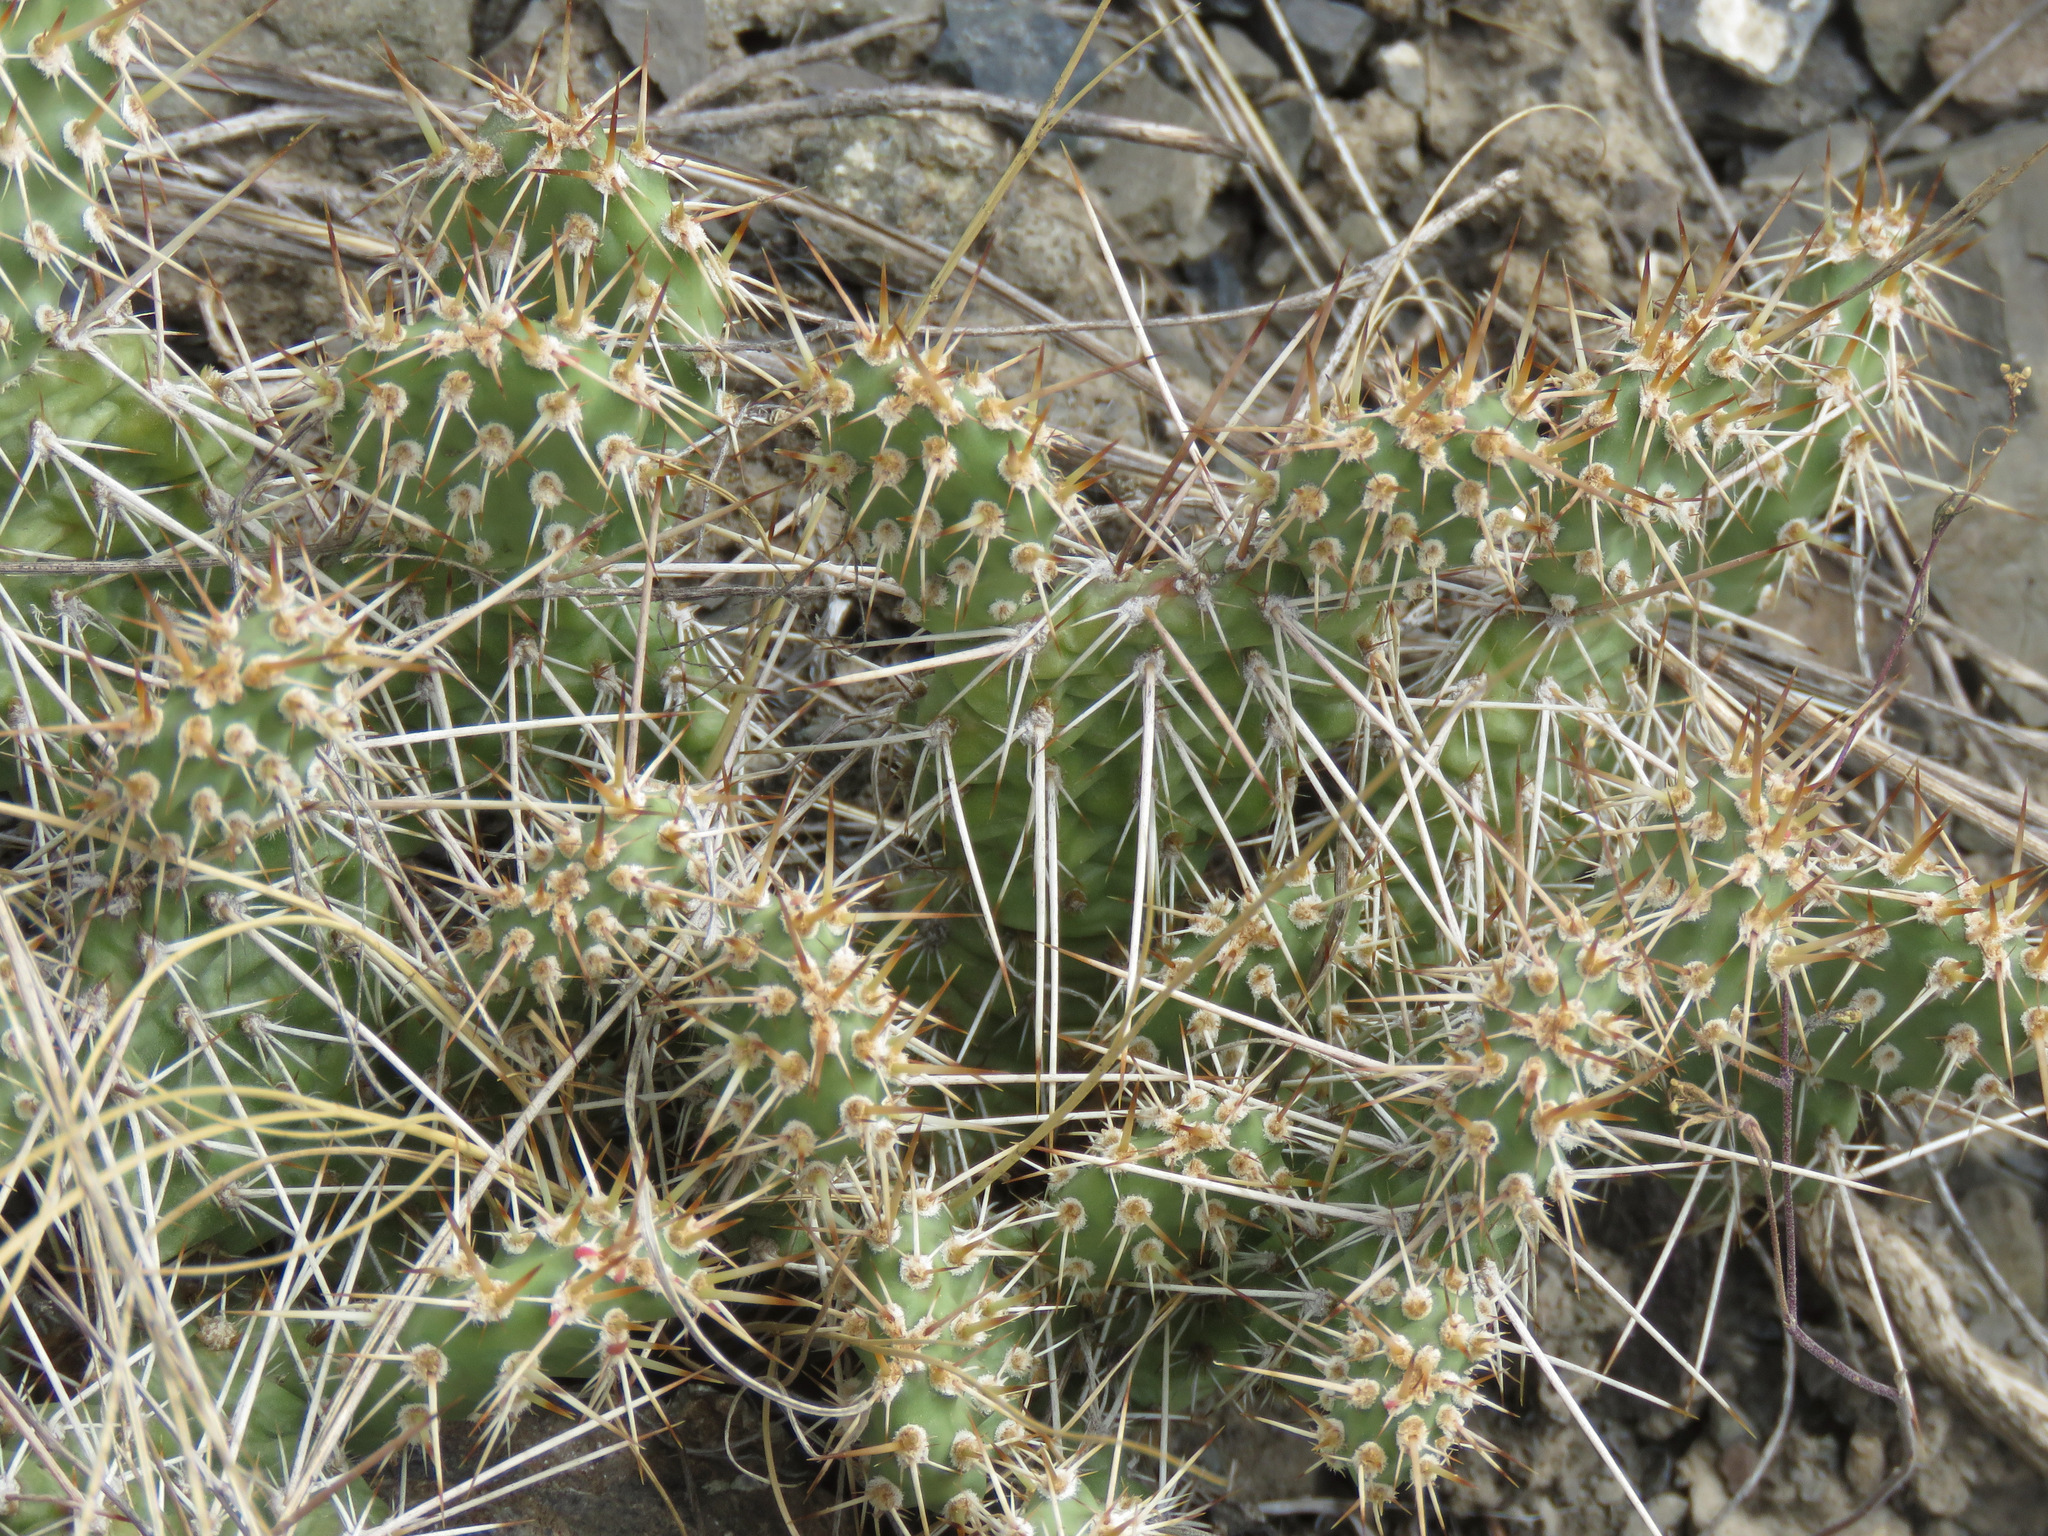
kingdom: Plantae
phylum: Tracheophyta
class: Magnoliopsida
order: Caryophyllales
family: Cactaceae
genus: Opuntia
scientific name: Opuntia fragilis
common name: Brittle cactus
